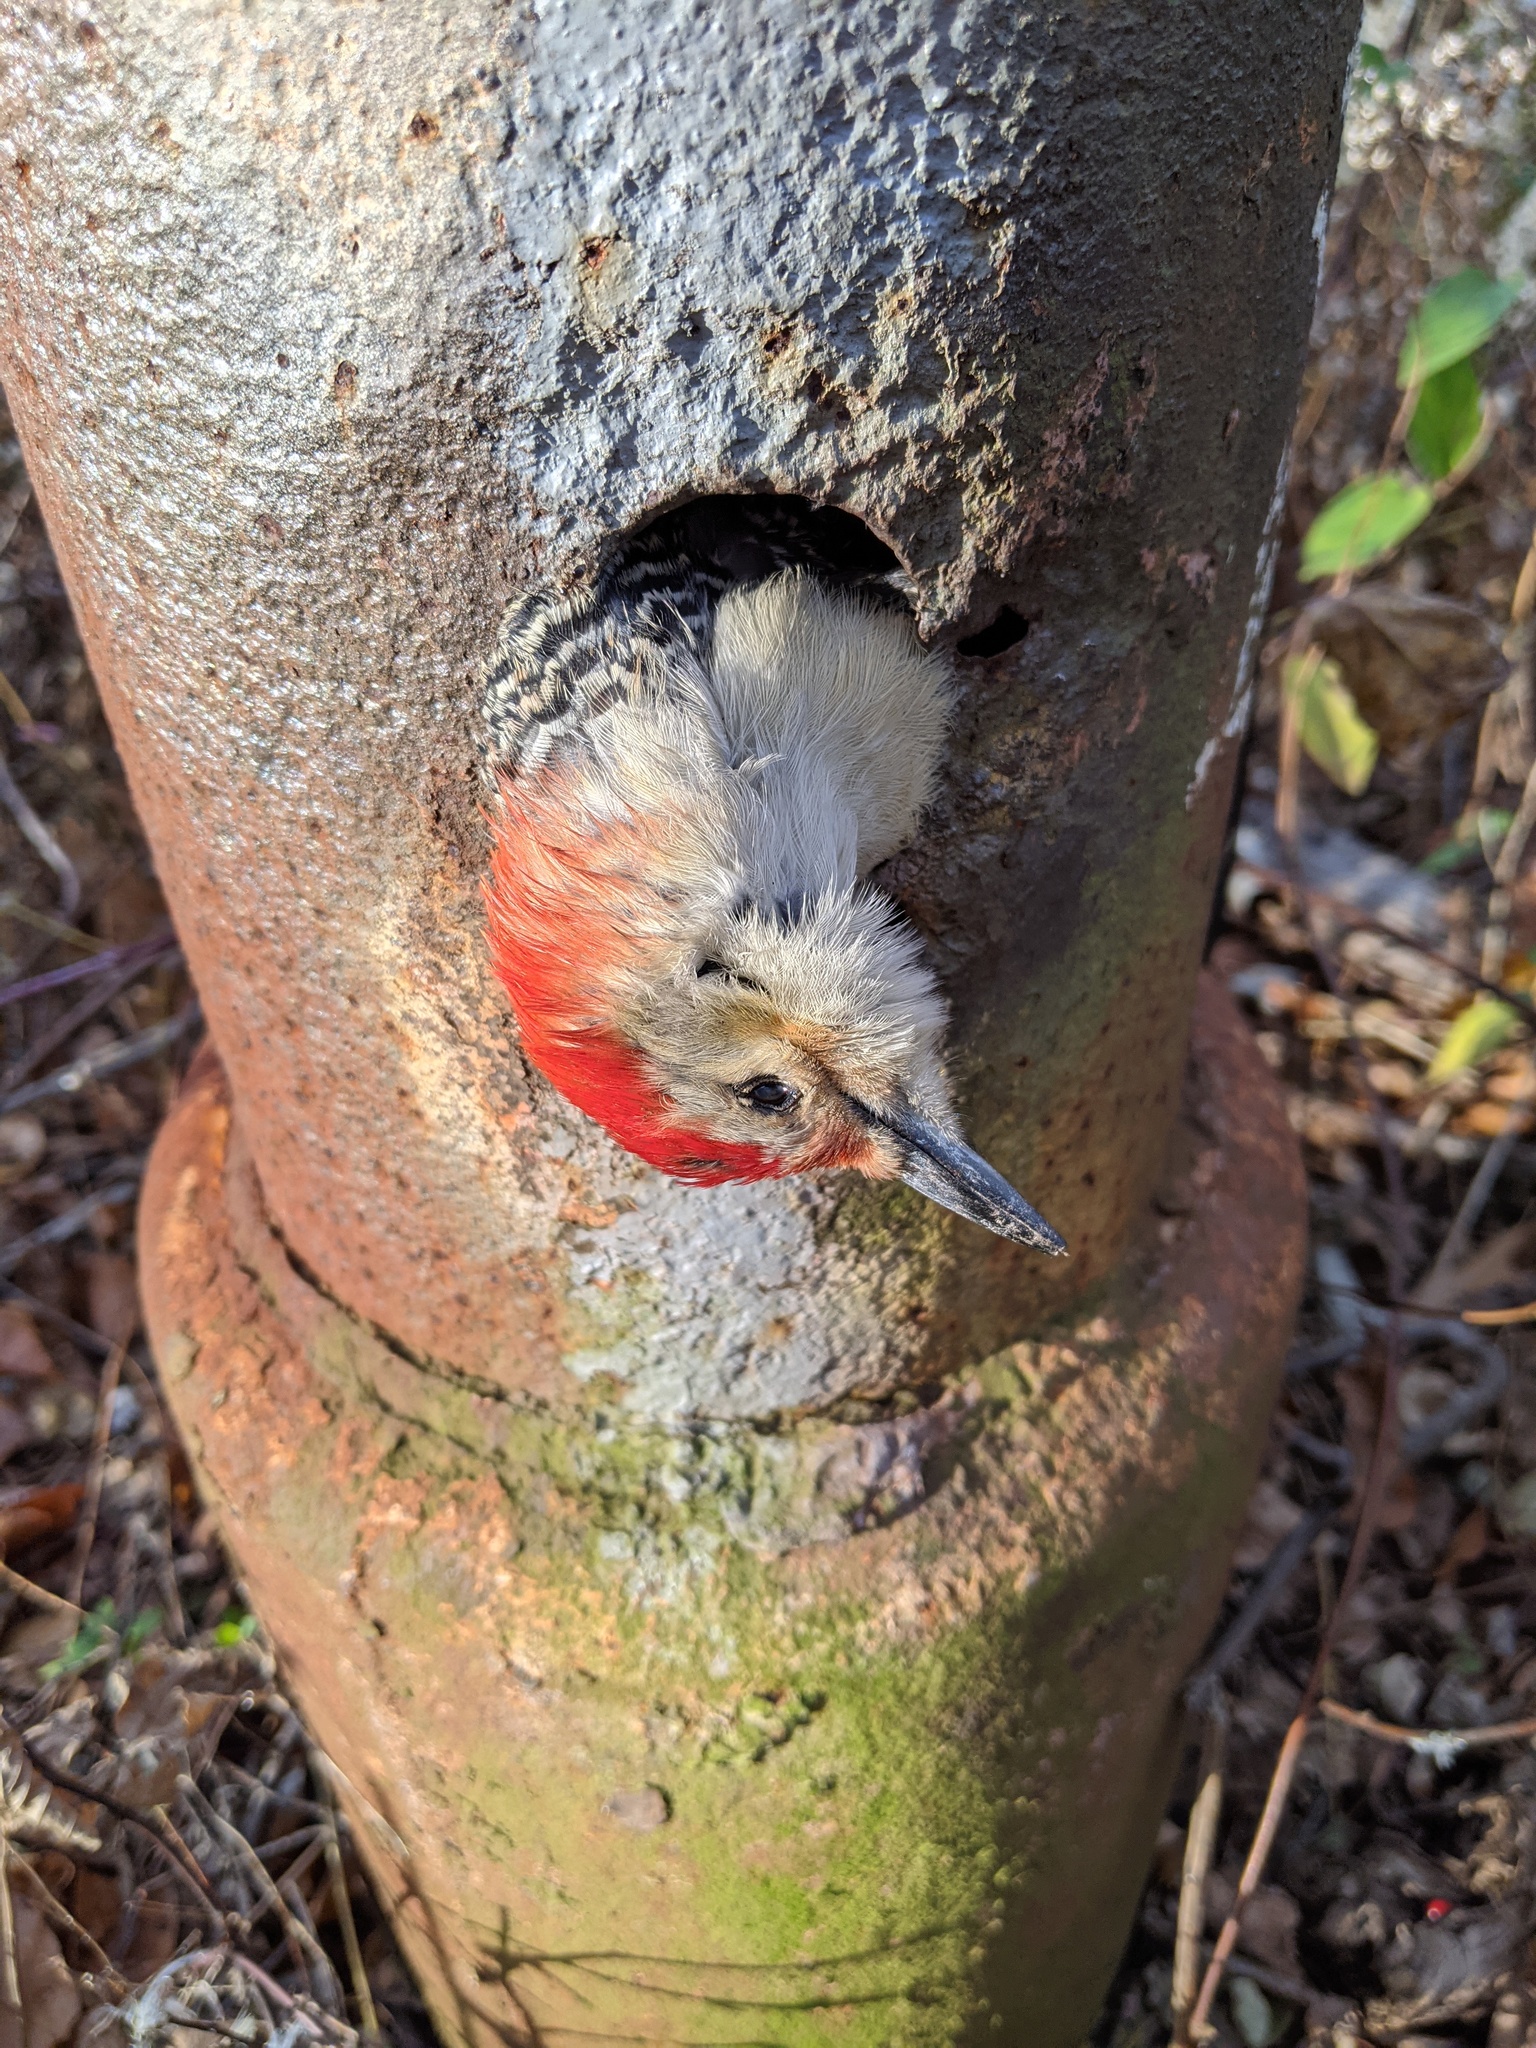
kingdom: Animalia
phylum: Chordata
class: Aves
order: Piciformes
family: Picidae
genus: Melanerpes
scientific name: Melanerpes carolinus
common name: Red-bellied woodpecker
